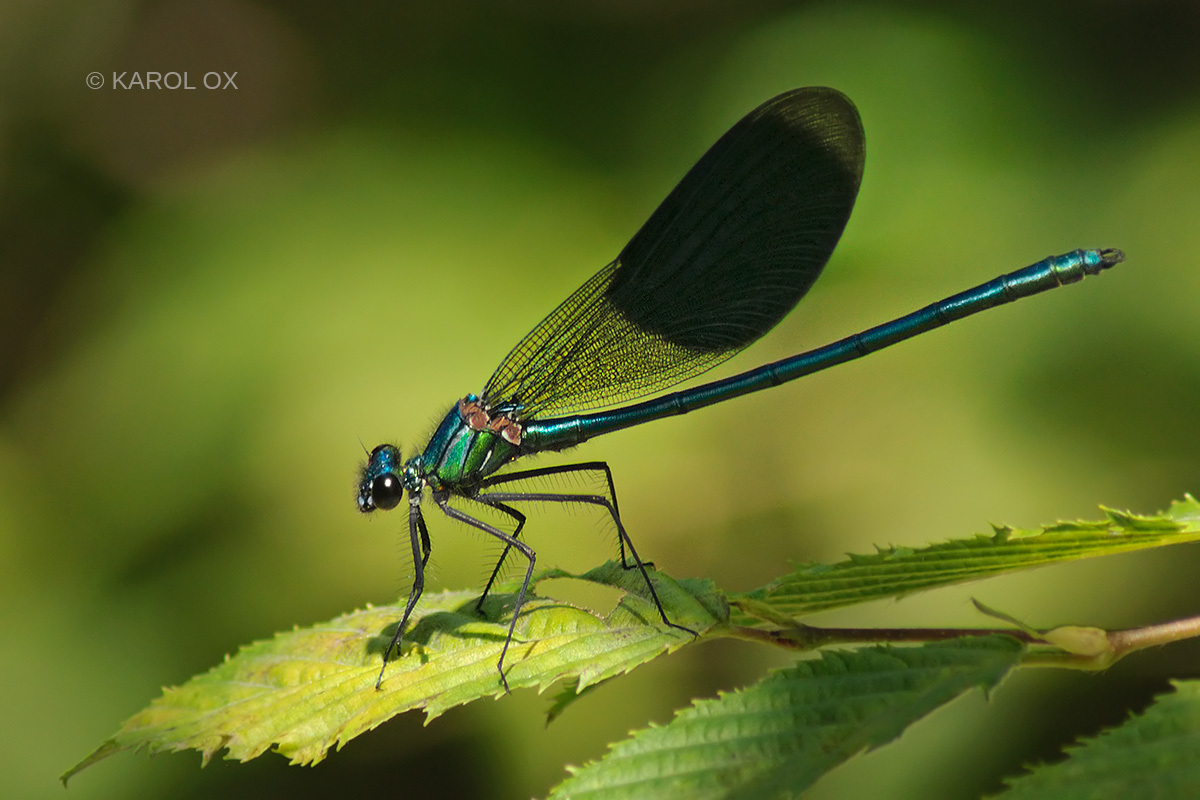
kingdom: Animalia
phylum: Arthropoda
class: Insecta
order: Odonata
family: Calopterygidae
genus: Calopteryx
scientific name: Calopteryx splendens
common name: Banded demoiselle
